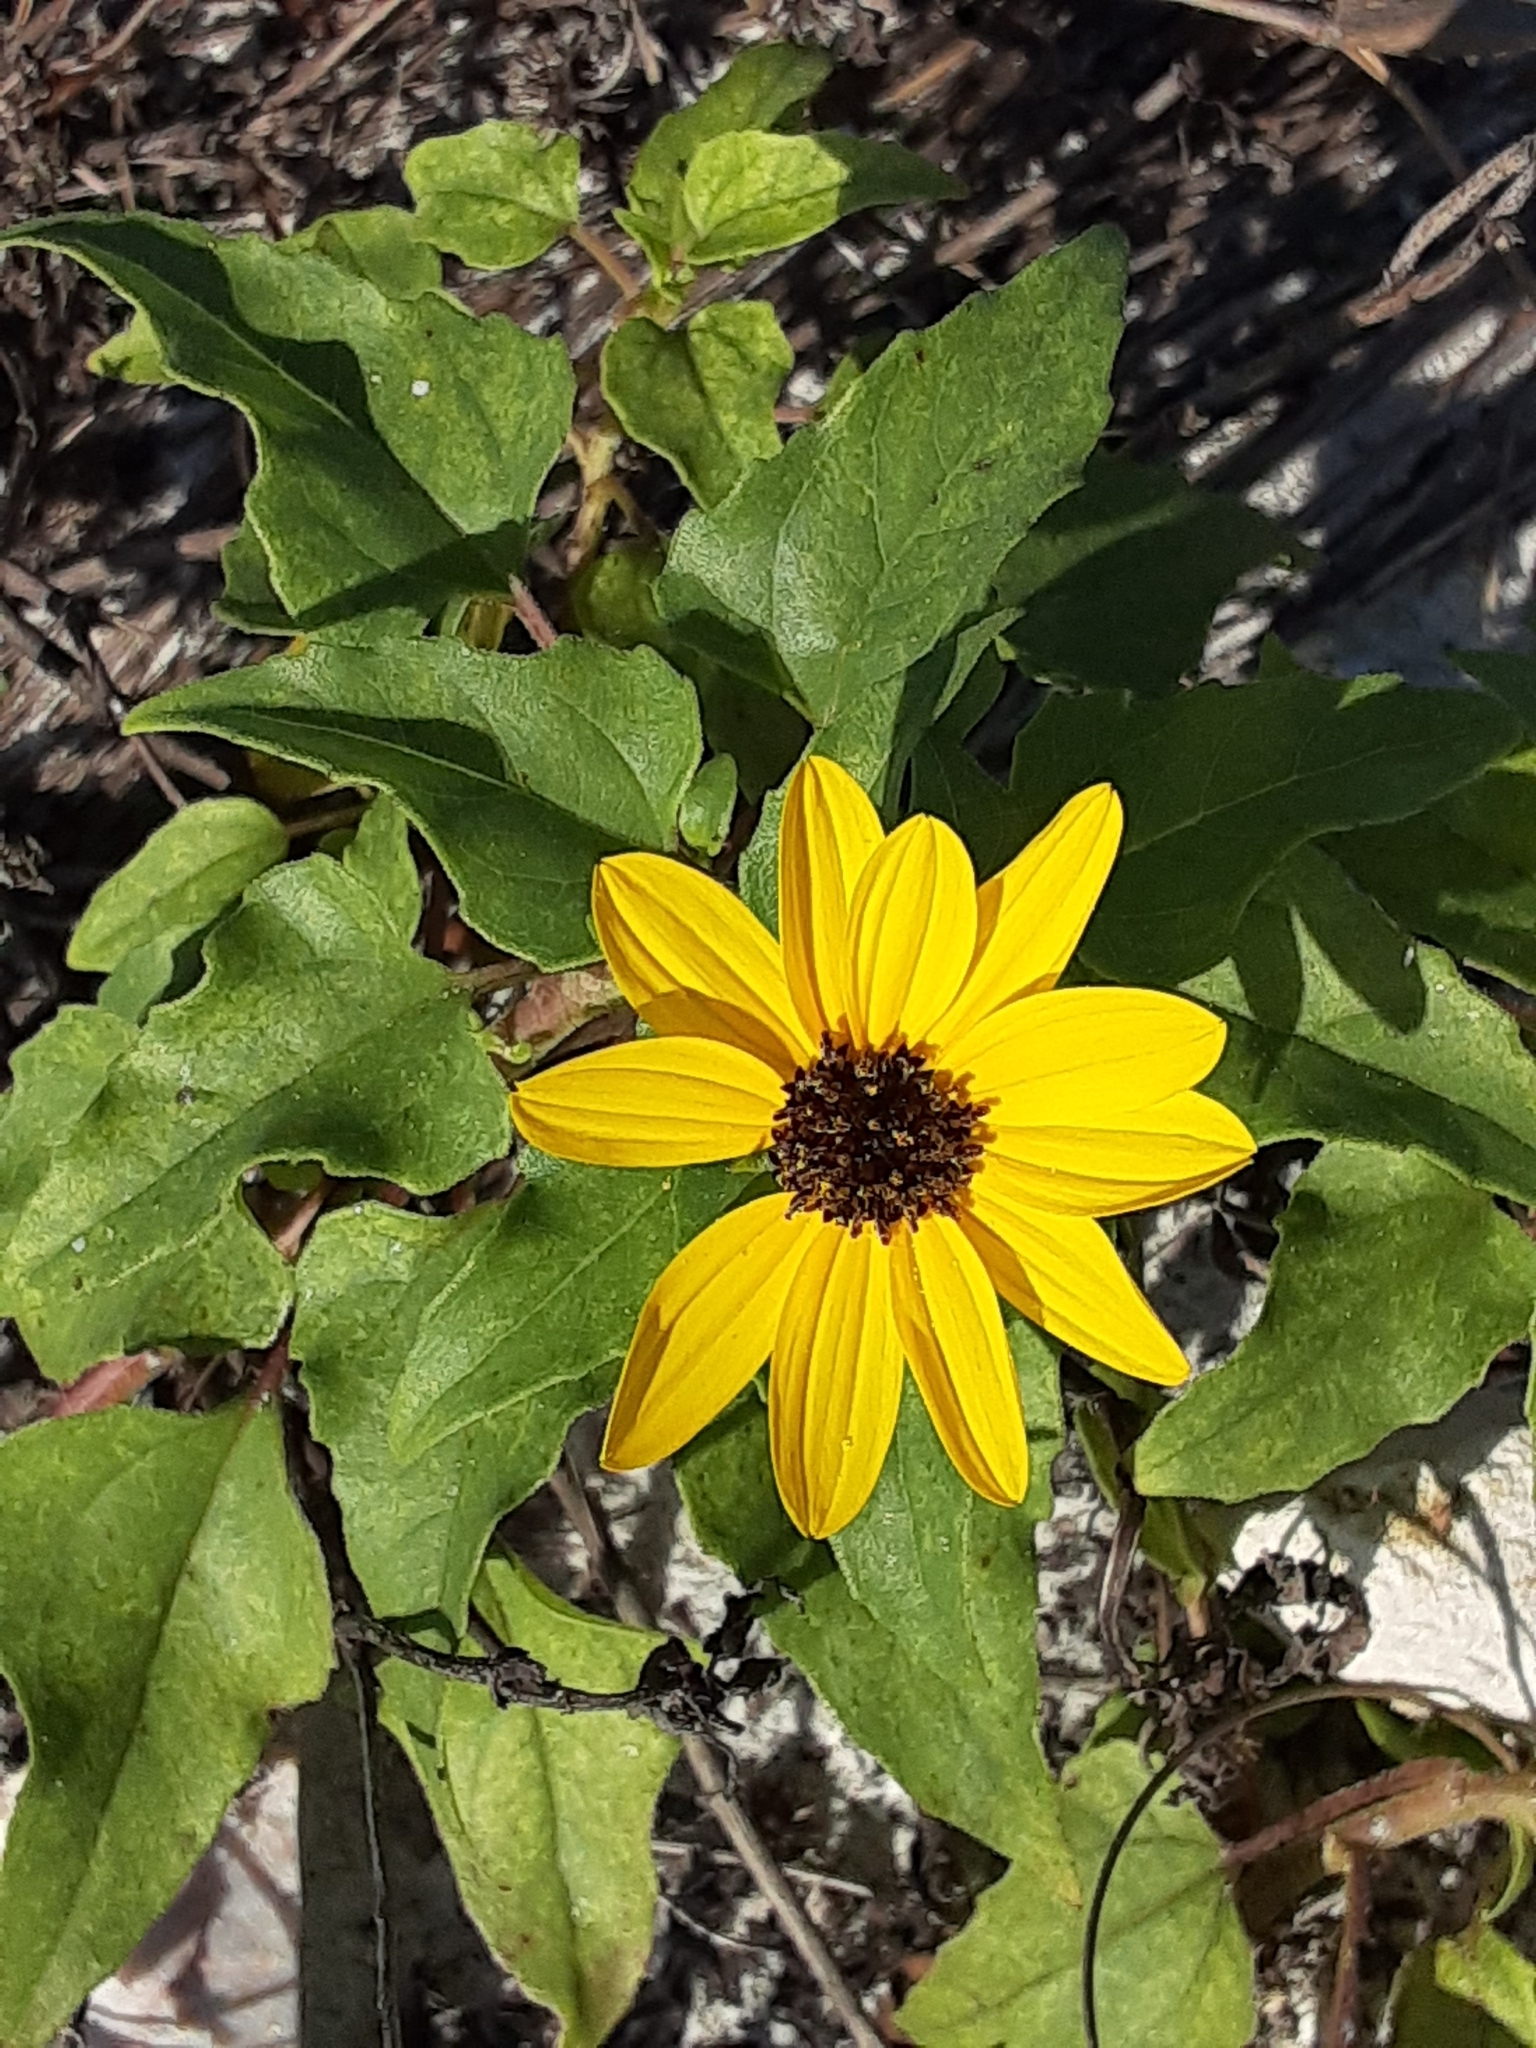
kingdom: Plantae
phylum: Tracheophyta
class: Magnoliopsida
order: Asterales
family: Asteraceae
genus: Helianthus
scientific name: Helianthus debilis
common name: Weak sunflower
